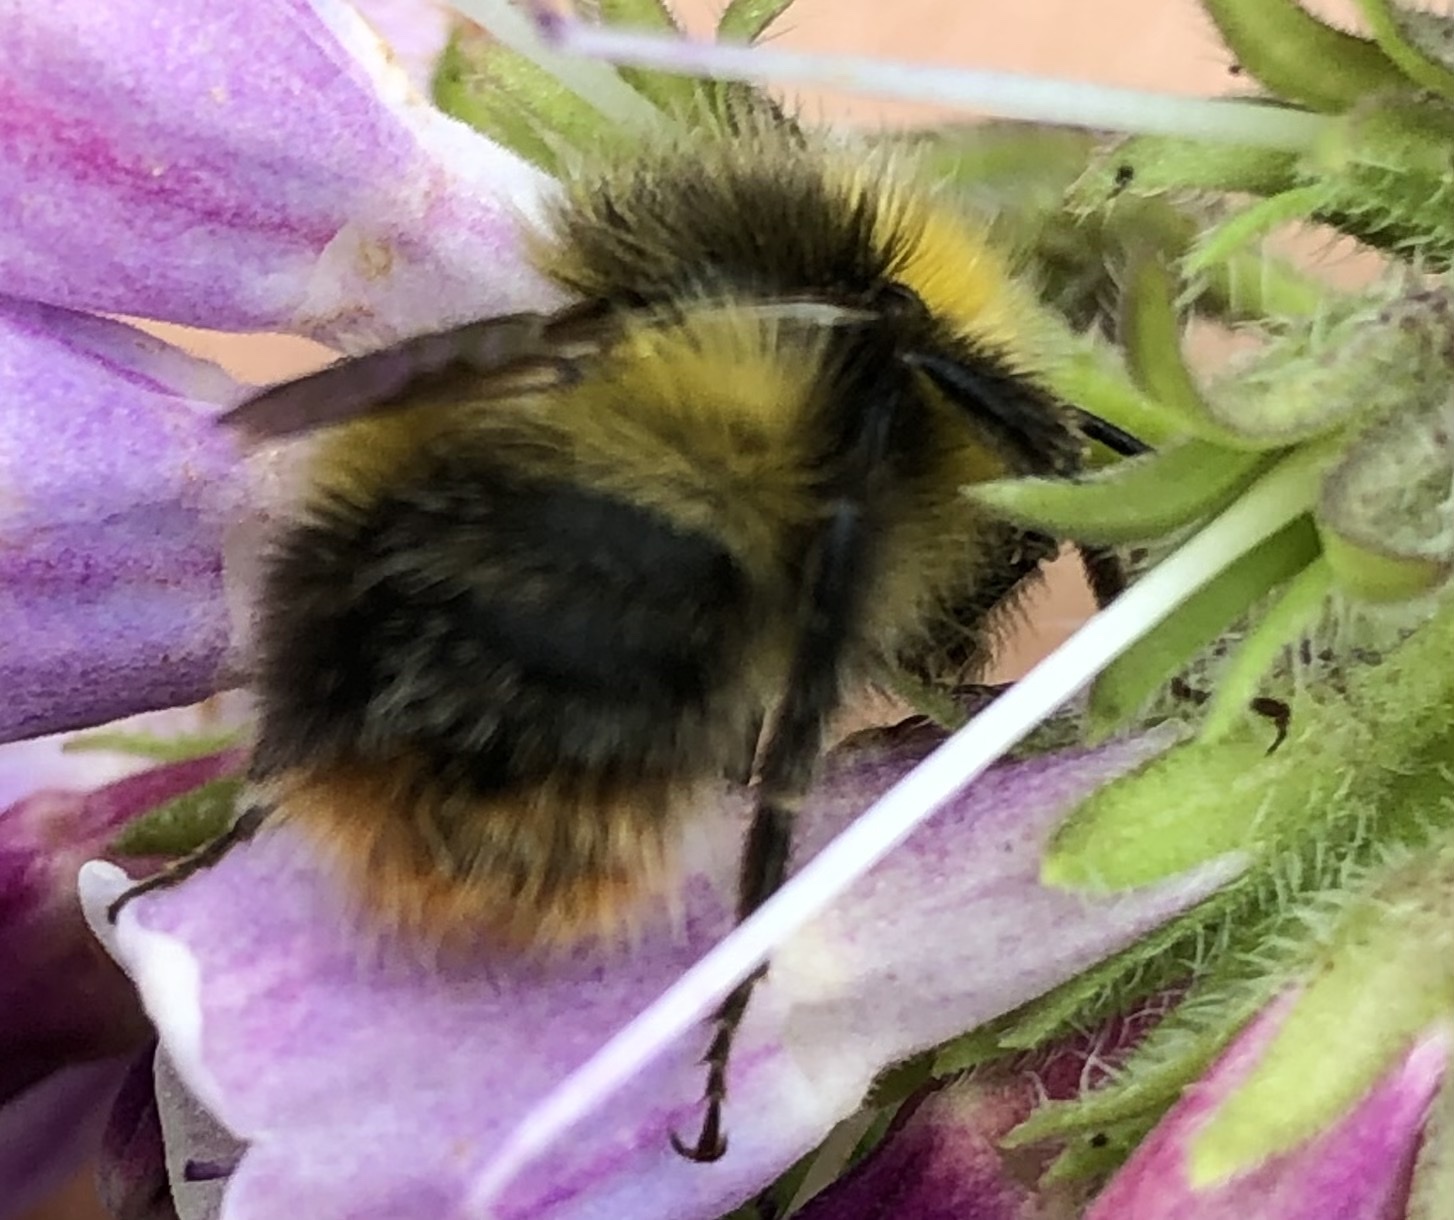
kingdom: Animalia
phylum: Arthropoda
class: Insecta
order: Hymenoptera
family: Apidae
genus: Bombus
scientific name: Bombus pratorum
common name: Early humble-bee
